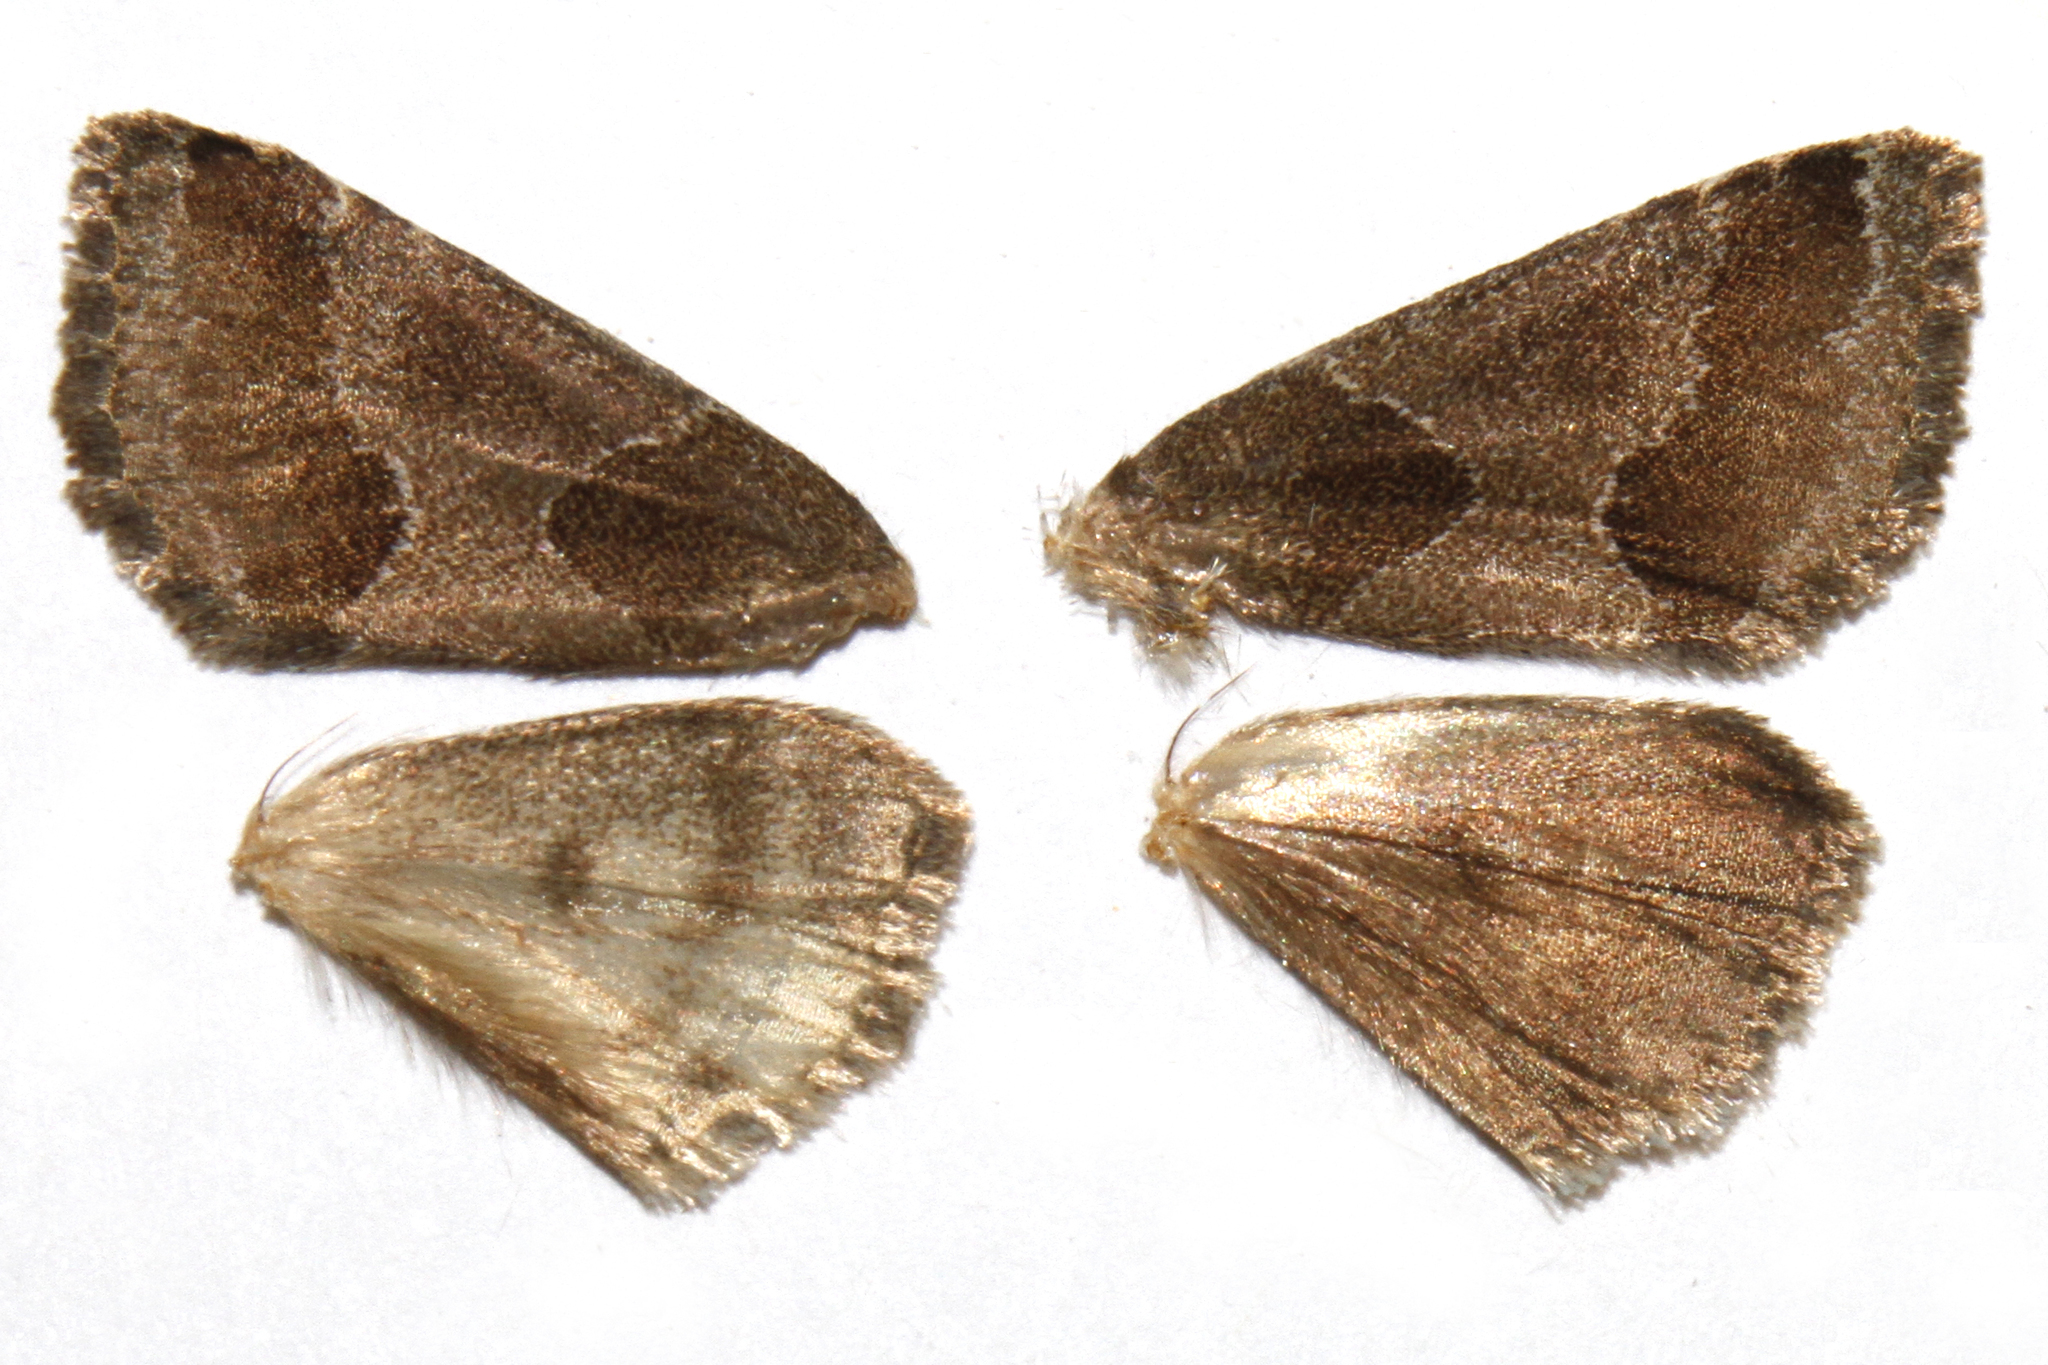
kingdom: Animalia
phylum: Arthropoda
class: Insecta
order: Lepidoptera
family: Noctuidae
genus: Schinia
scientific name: Schinia thoreaui
